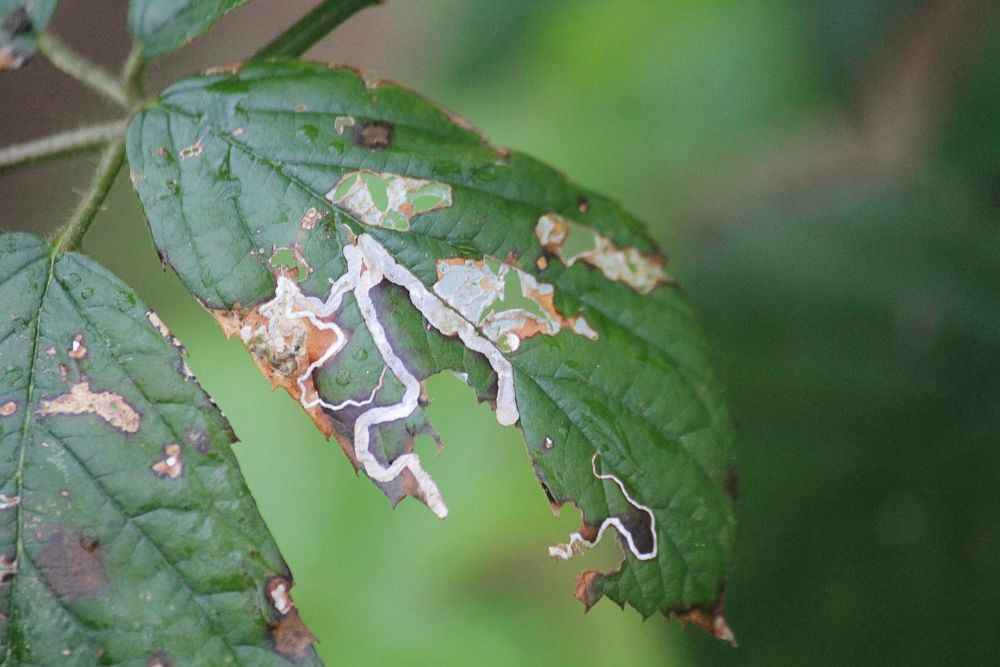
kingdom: Animalia
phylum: Arthropoda
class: Insecta
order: Lepidoptera
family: Nepticulidae
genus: Stigmella
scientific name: Stigmella aurella
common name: Golden pigmy
